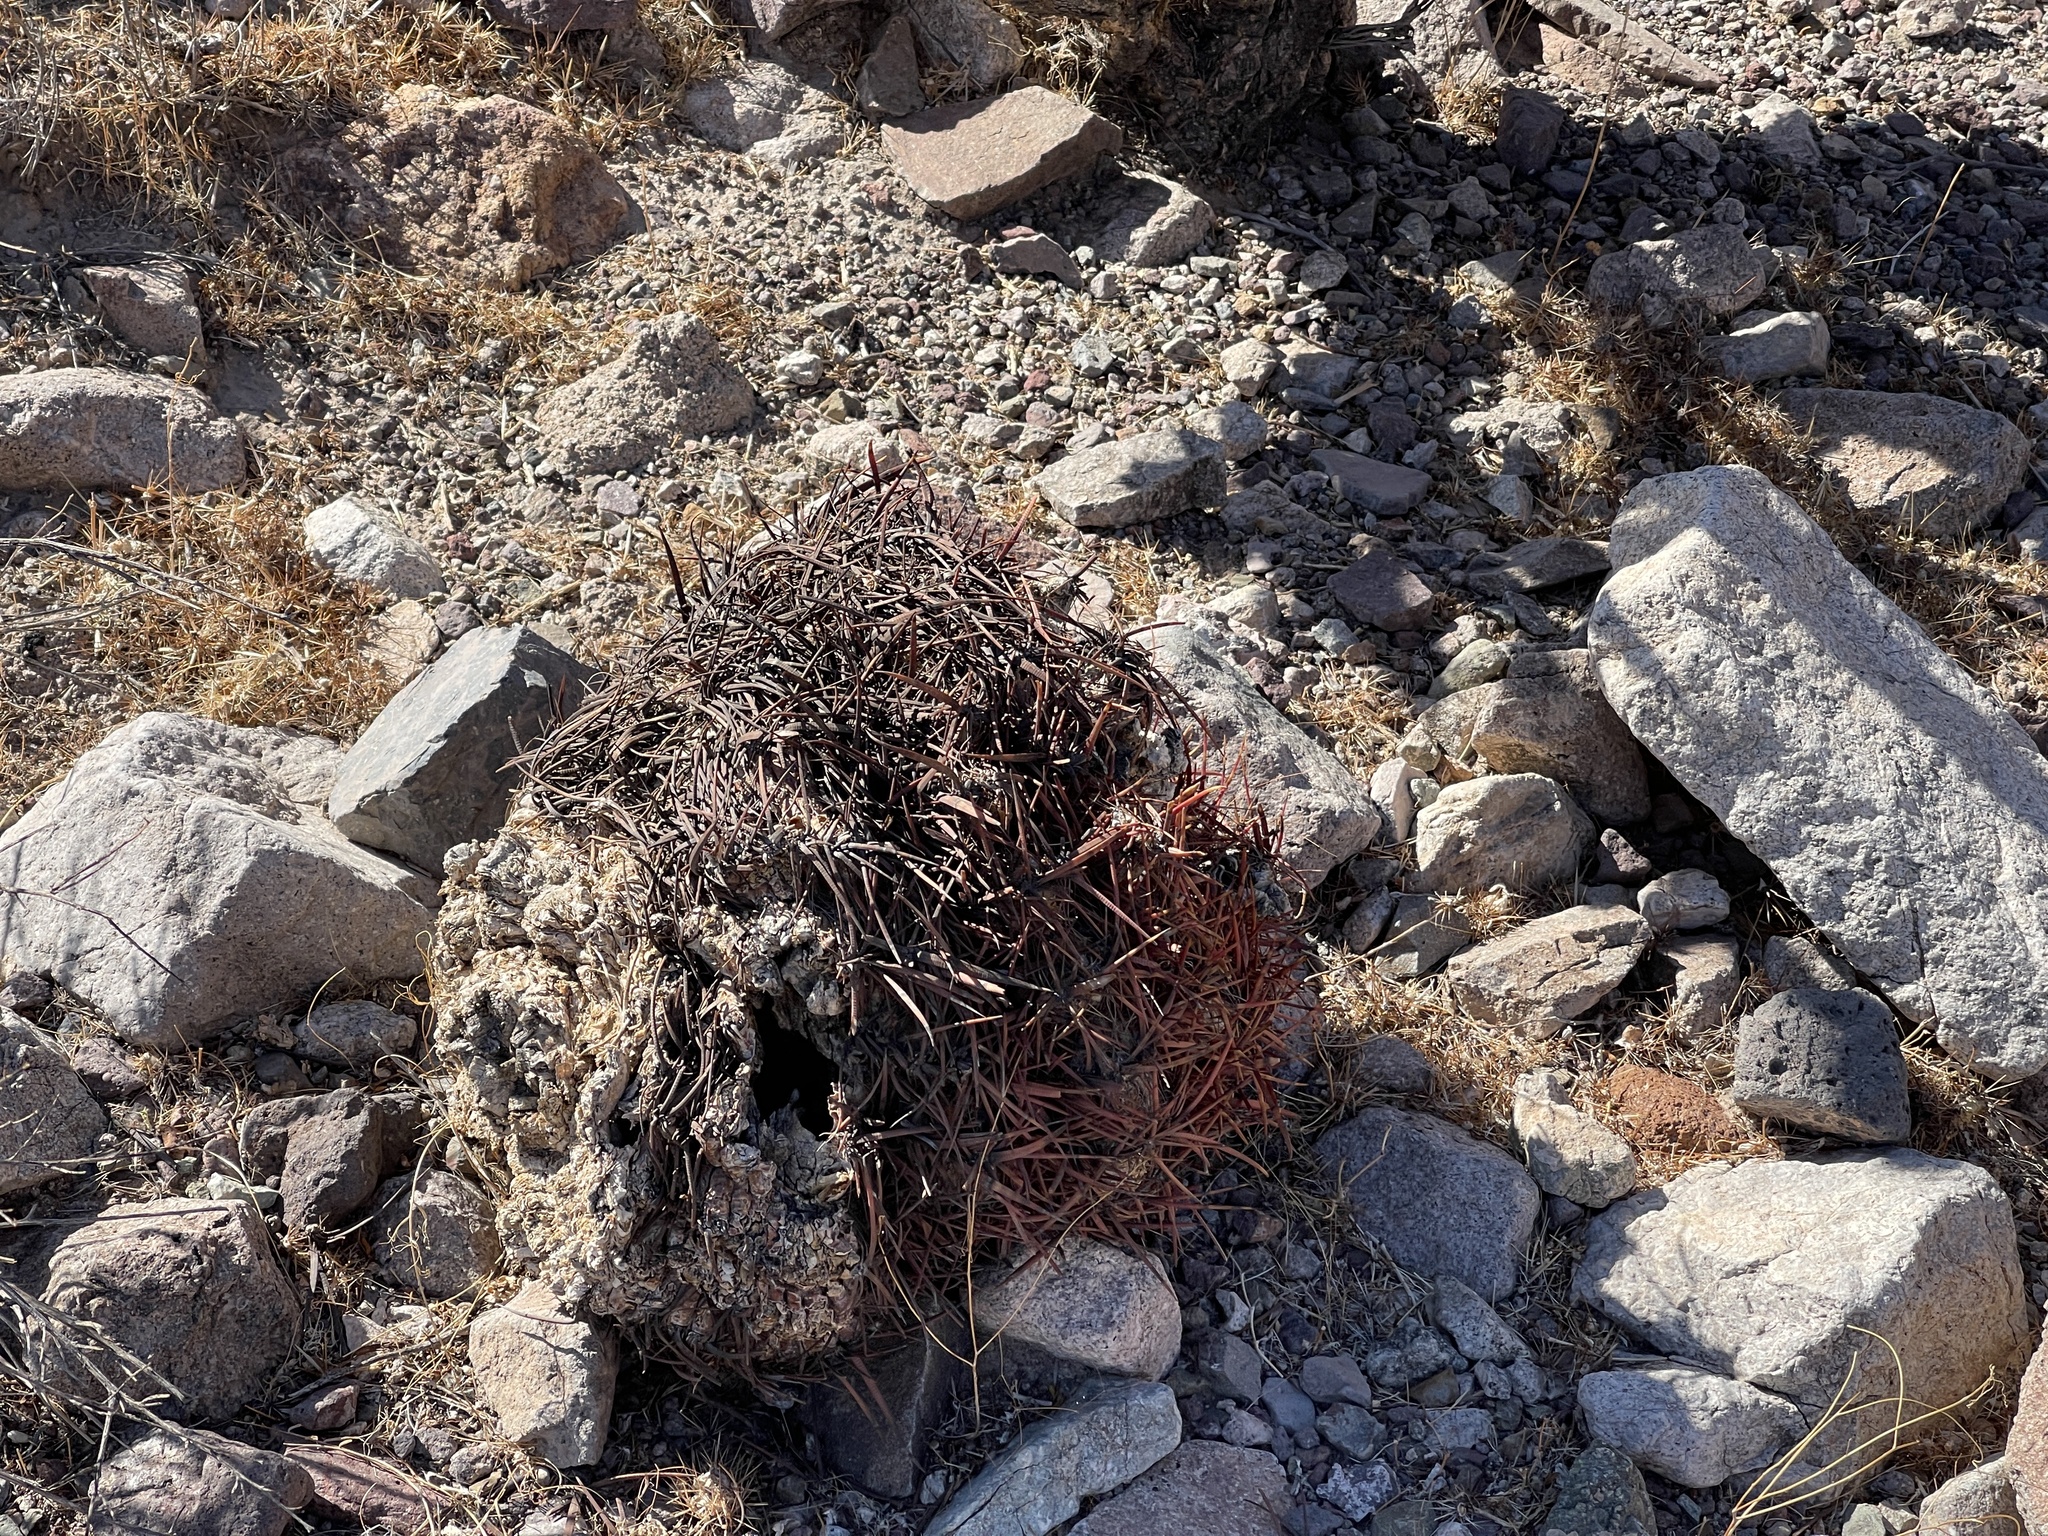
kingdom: Plantae
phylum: Tracheophyta
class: Magnoliopsida
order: Caryophyllales
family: Cactaceae
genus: Ferocactus
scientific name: Ferocactus cylindraceus
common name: California barrel cactus
